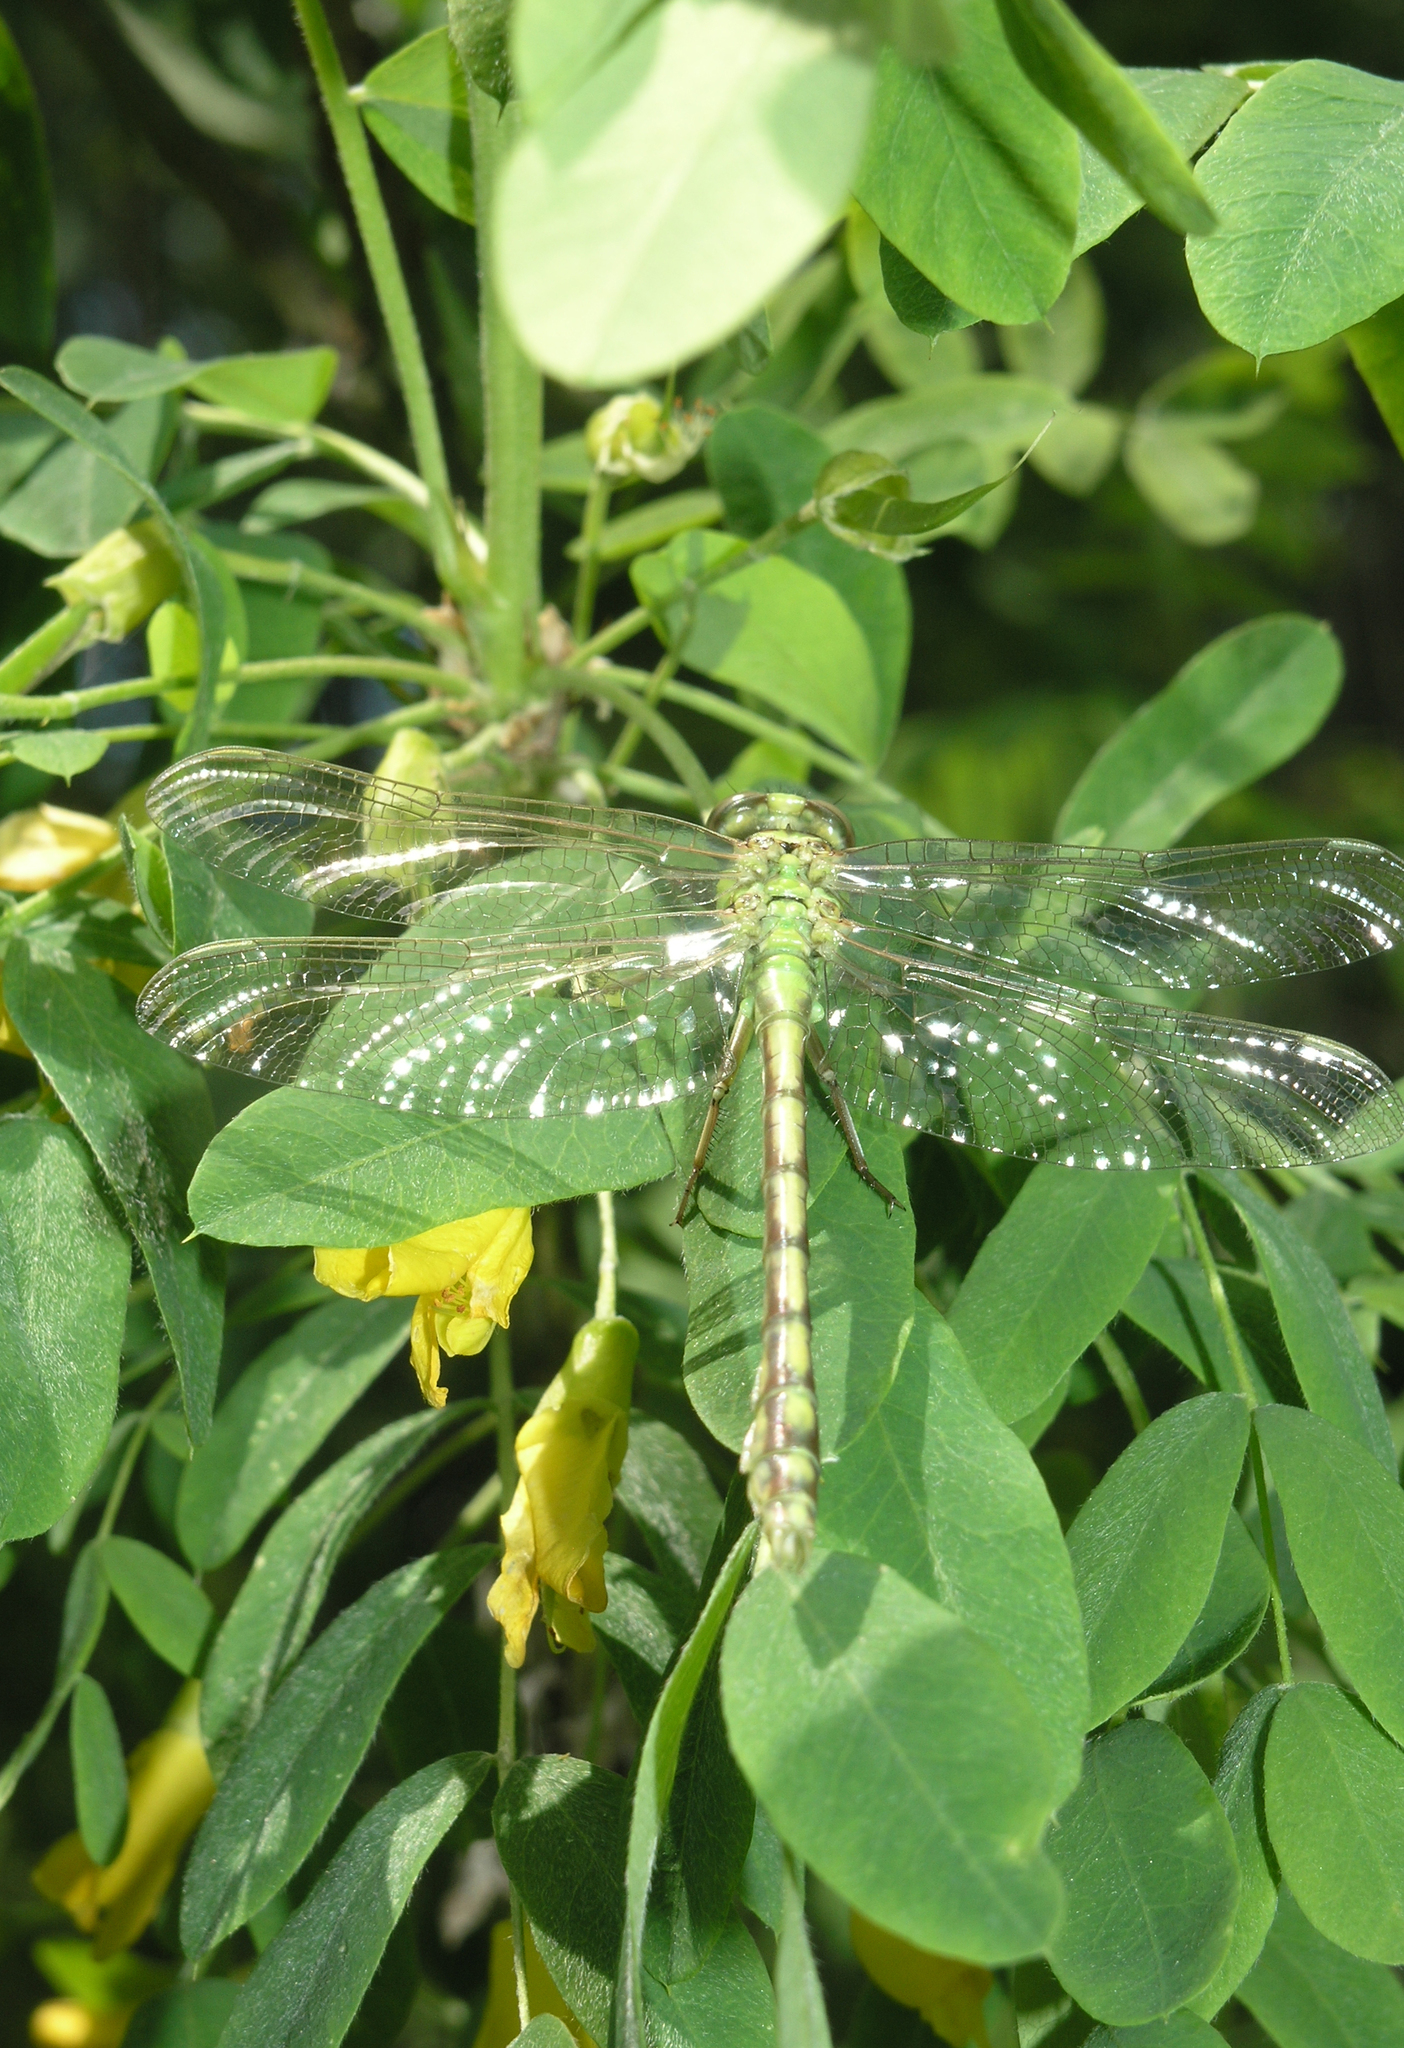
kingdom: Animalia
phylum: Arthropoda
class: Insecta
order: Odonata
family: Gomphidae
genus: Ophiogomphus
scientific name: Ophiogomphus cecilia
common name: Green snaketail
